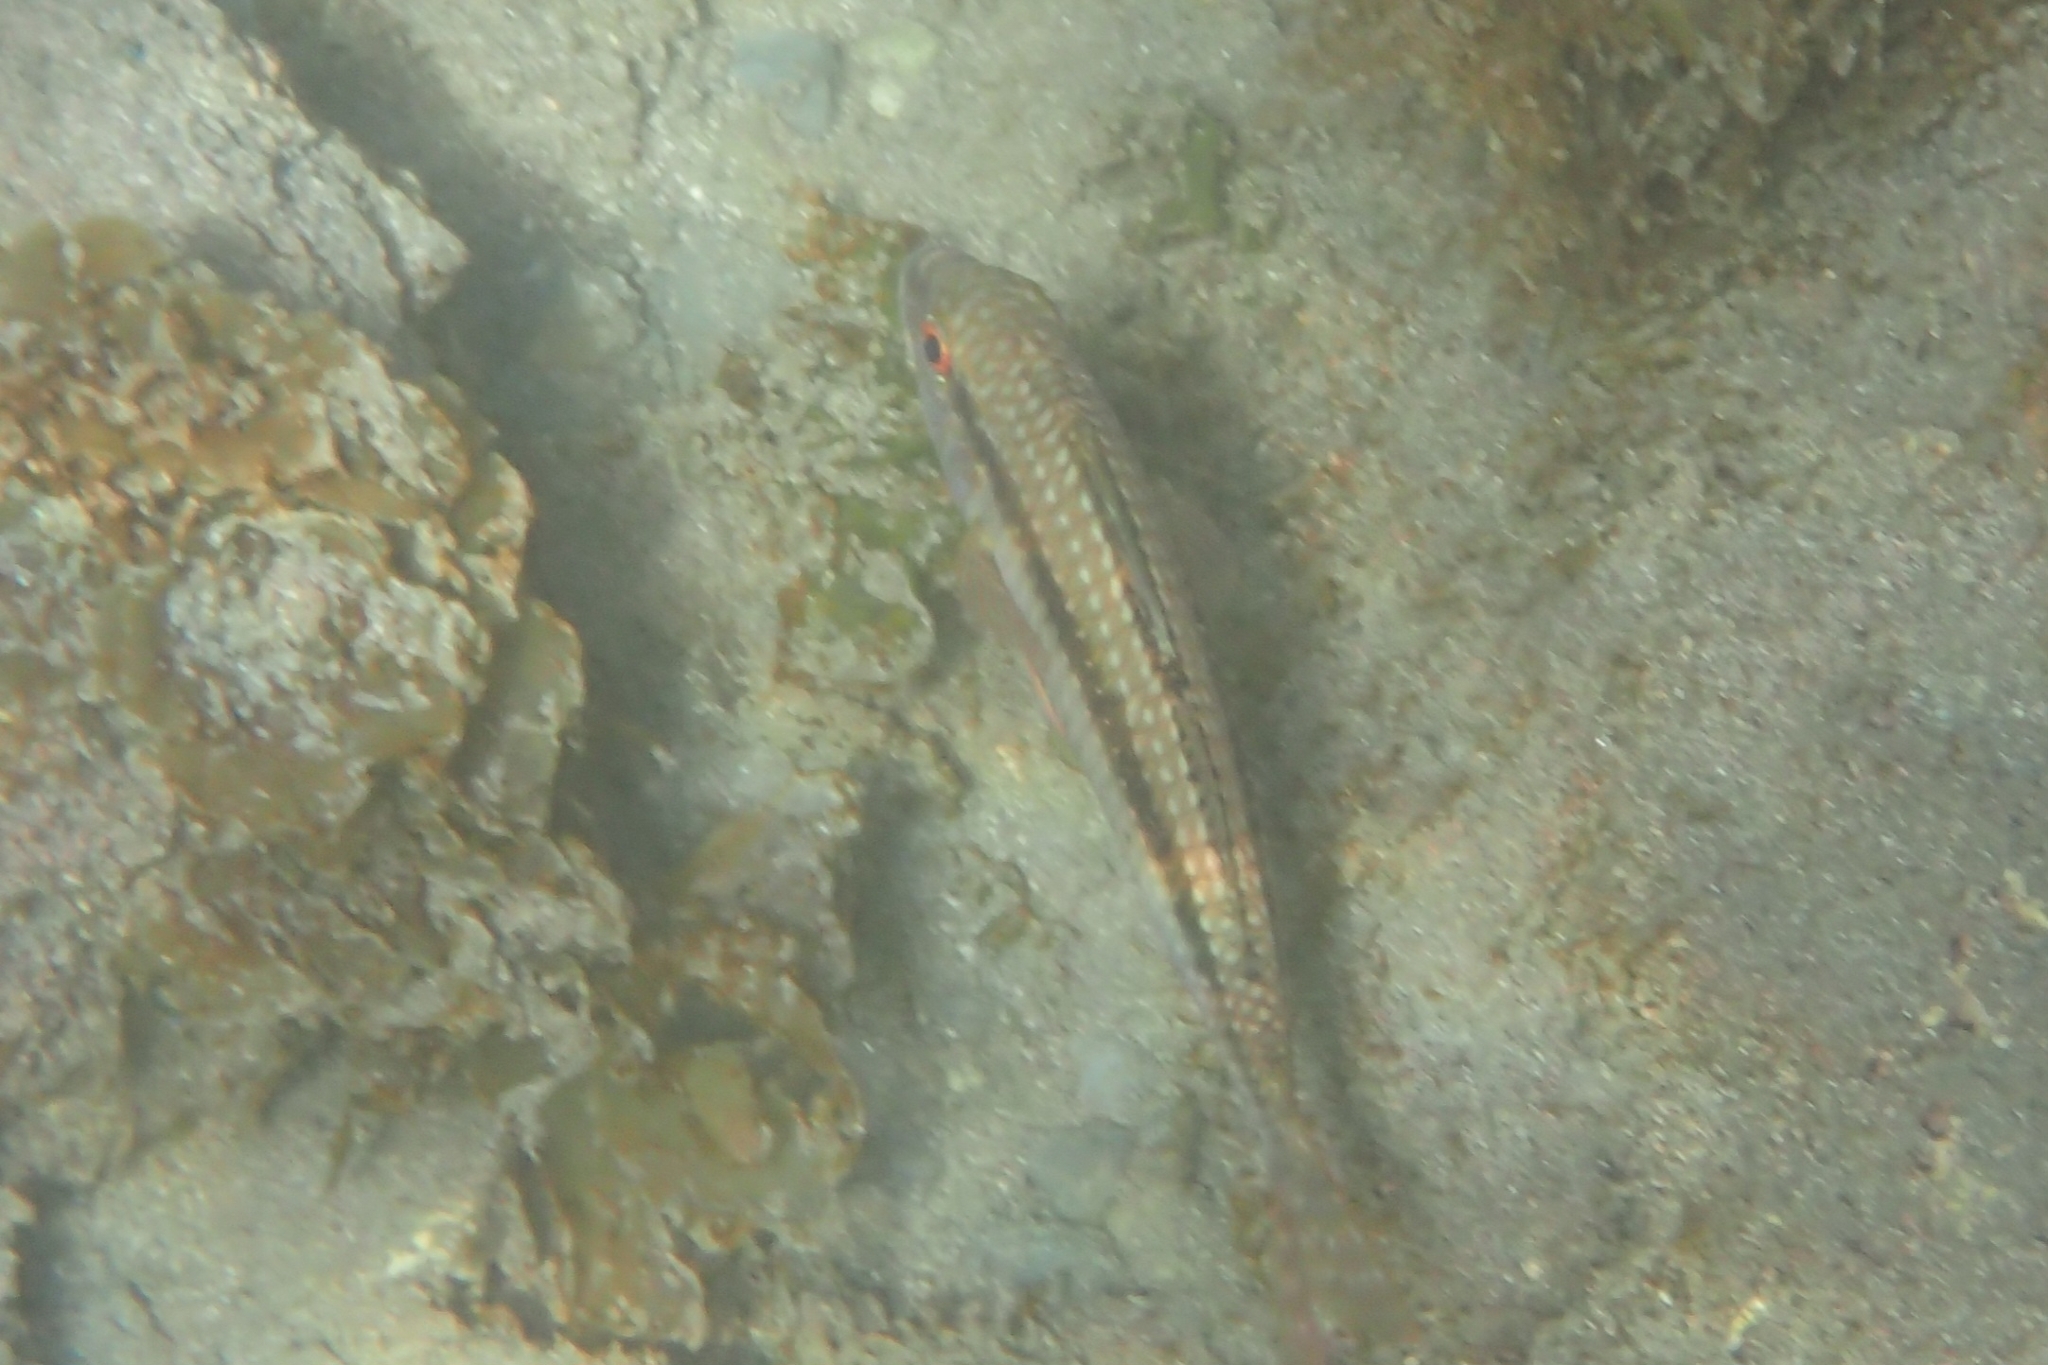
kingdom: Animalia
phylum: Chordata
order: Perciformes
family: Mullidae
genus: Upeneichthys
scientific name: Upeneichthys lineatus
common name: Red mullet
